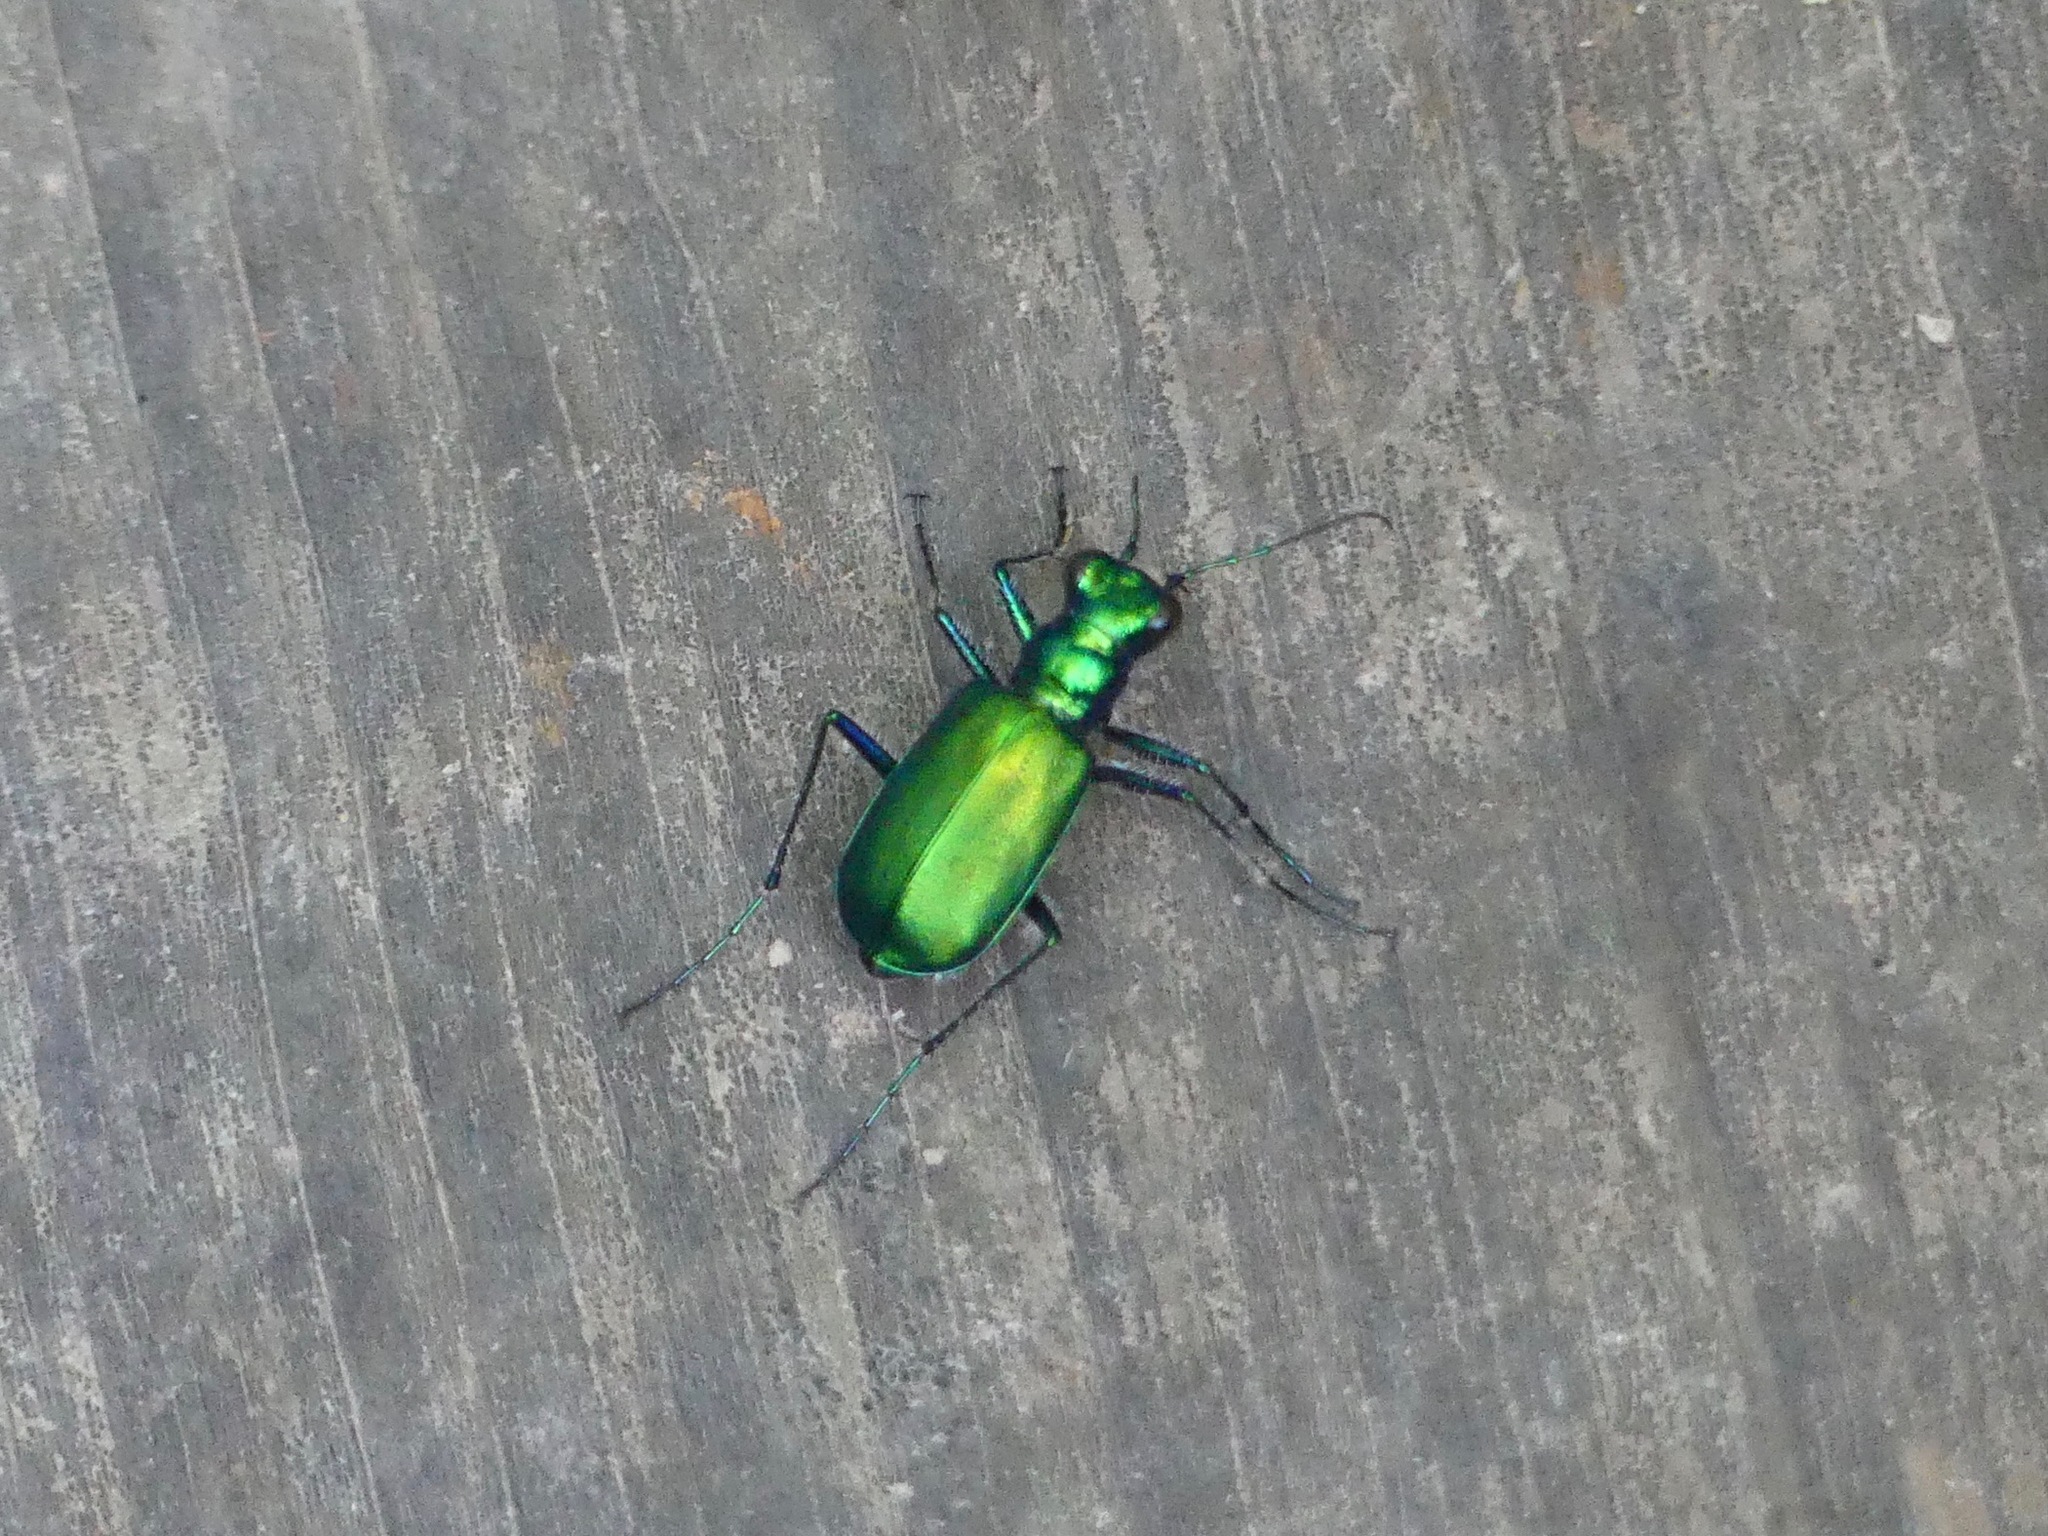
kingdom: Animalia
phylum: Arthropoda
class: Insecta
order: Coleoptera
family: Carabidae
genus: Cicindela
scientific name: Cicindela sexguttata
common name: Six-spotted tiger beetle
